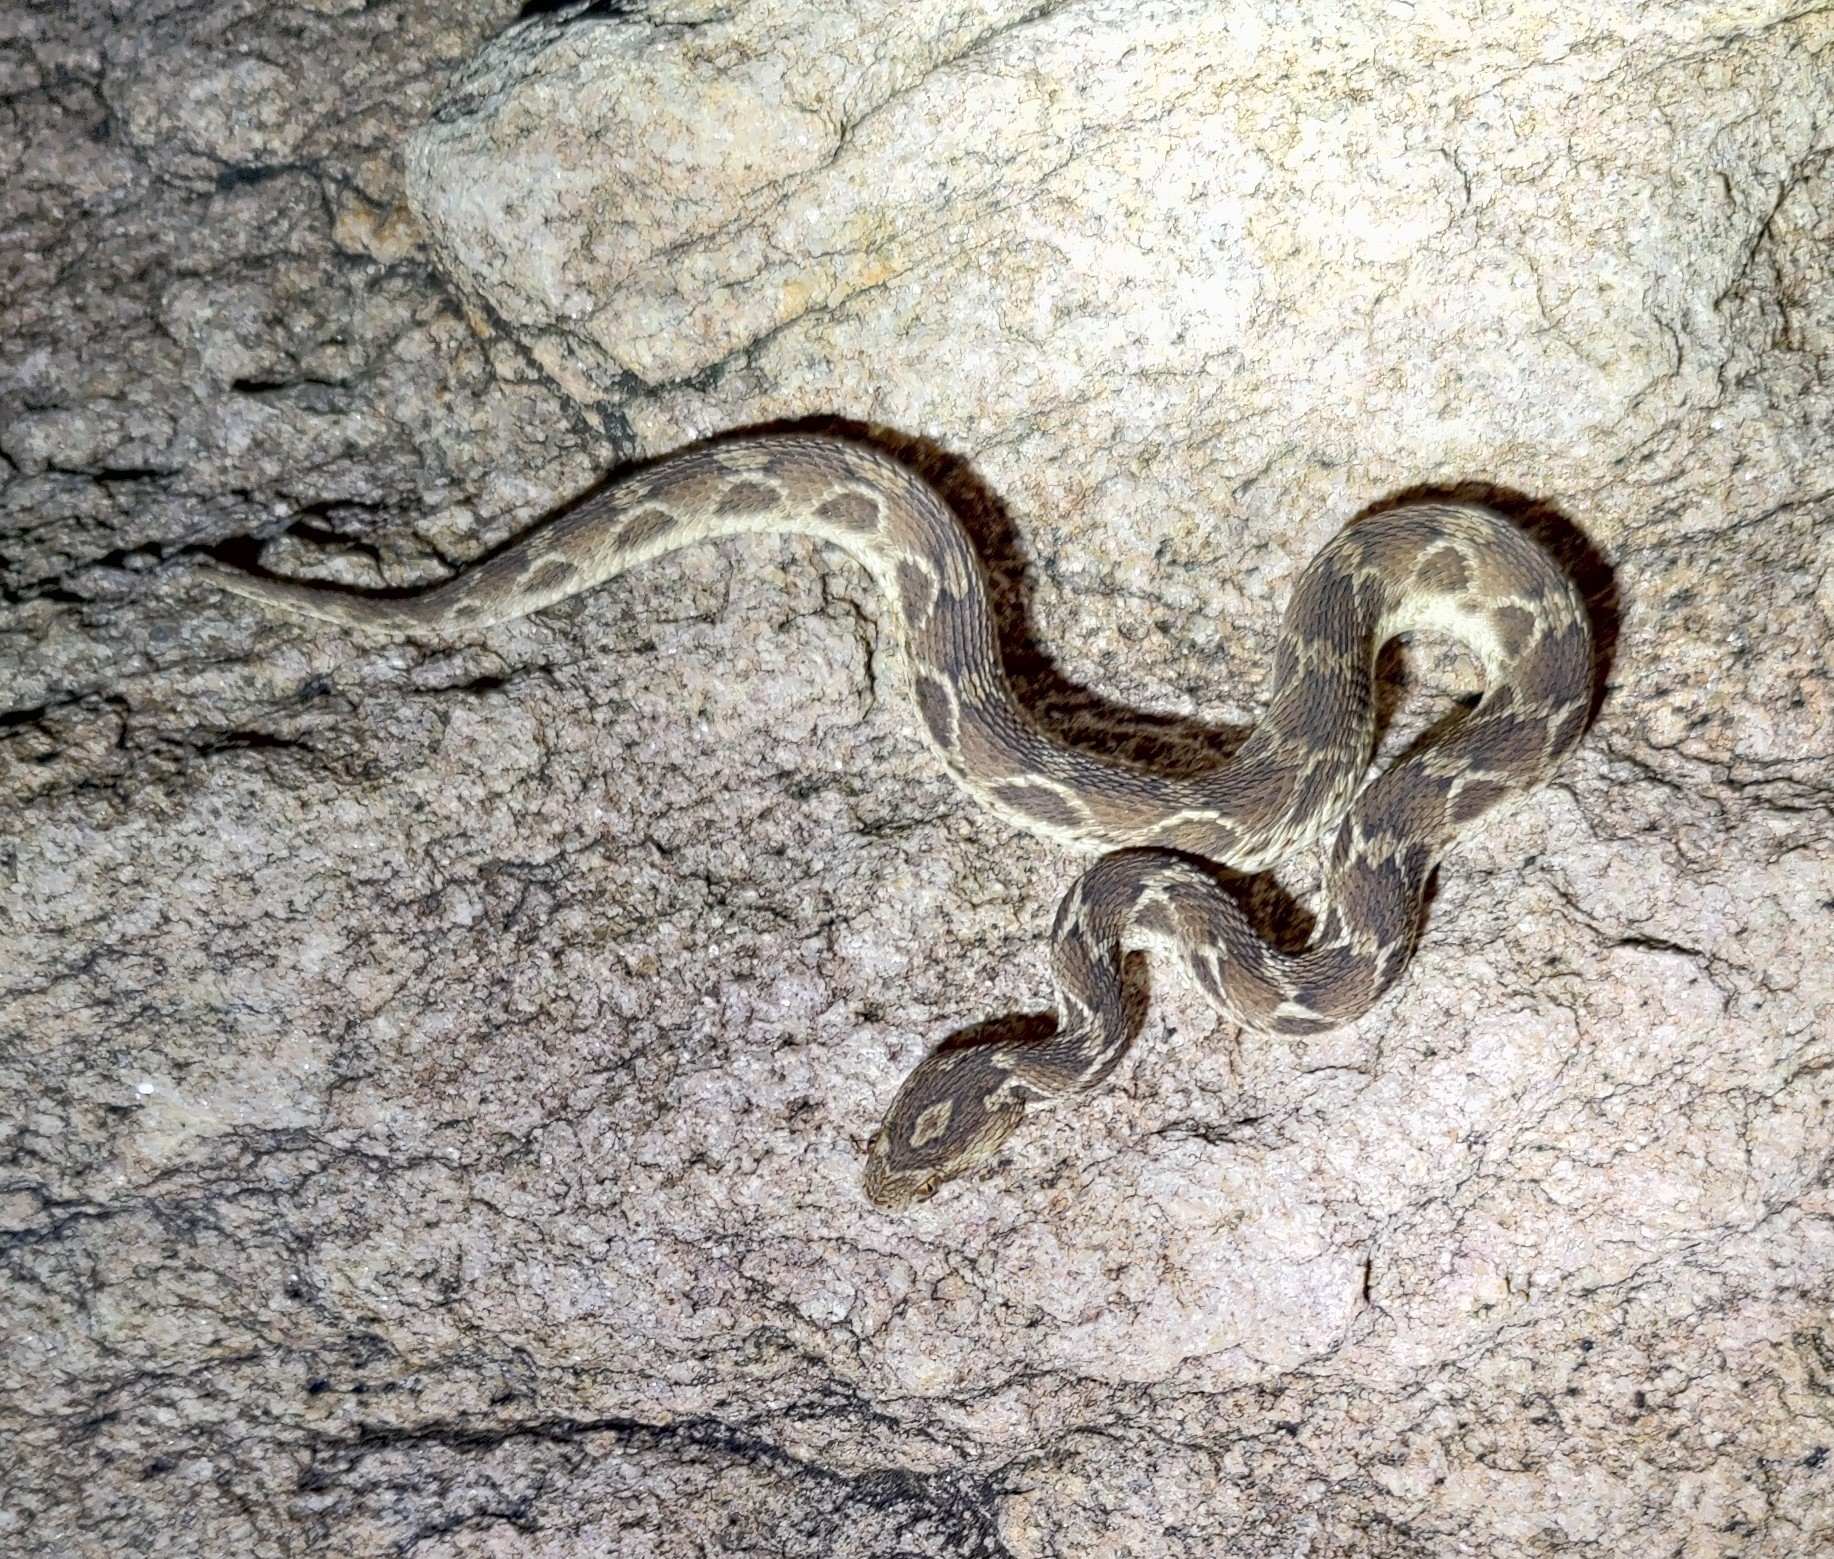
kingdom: Animalia
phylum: Chordata
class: Squamata
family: Viperidae
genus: Echis
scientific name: Echis carinatus
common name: Saw-scaled viper
